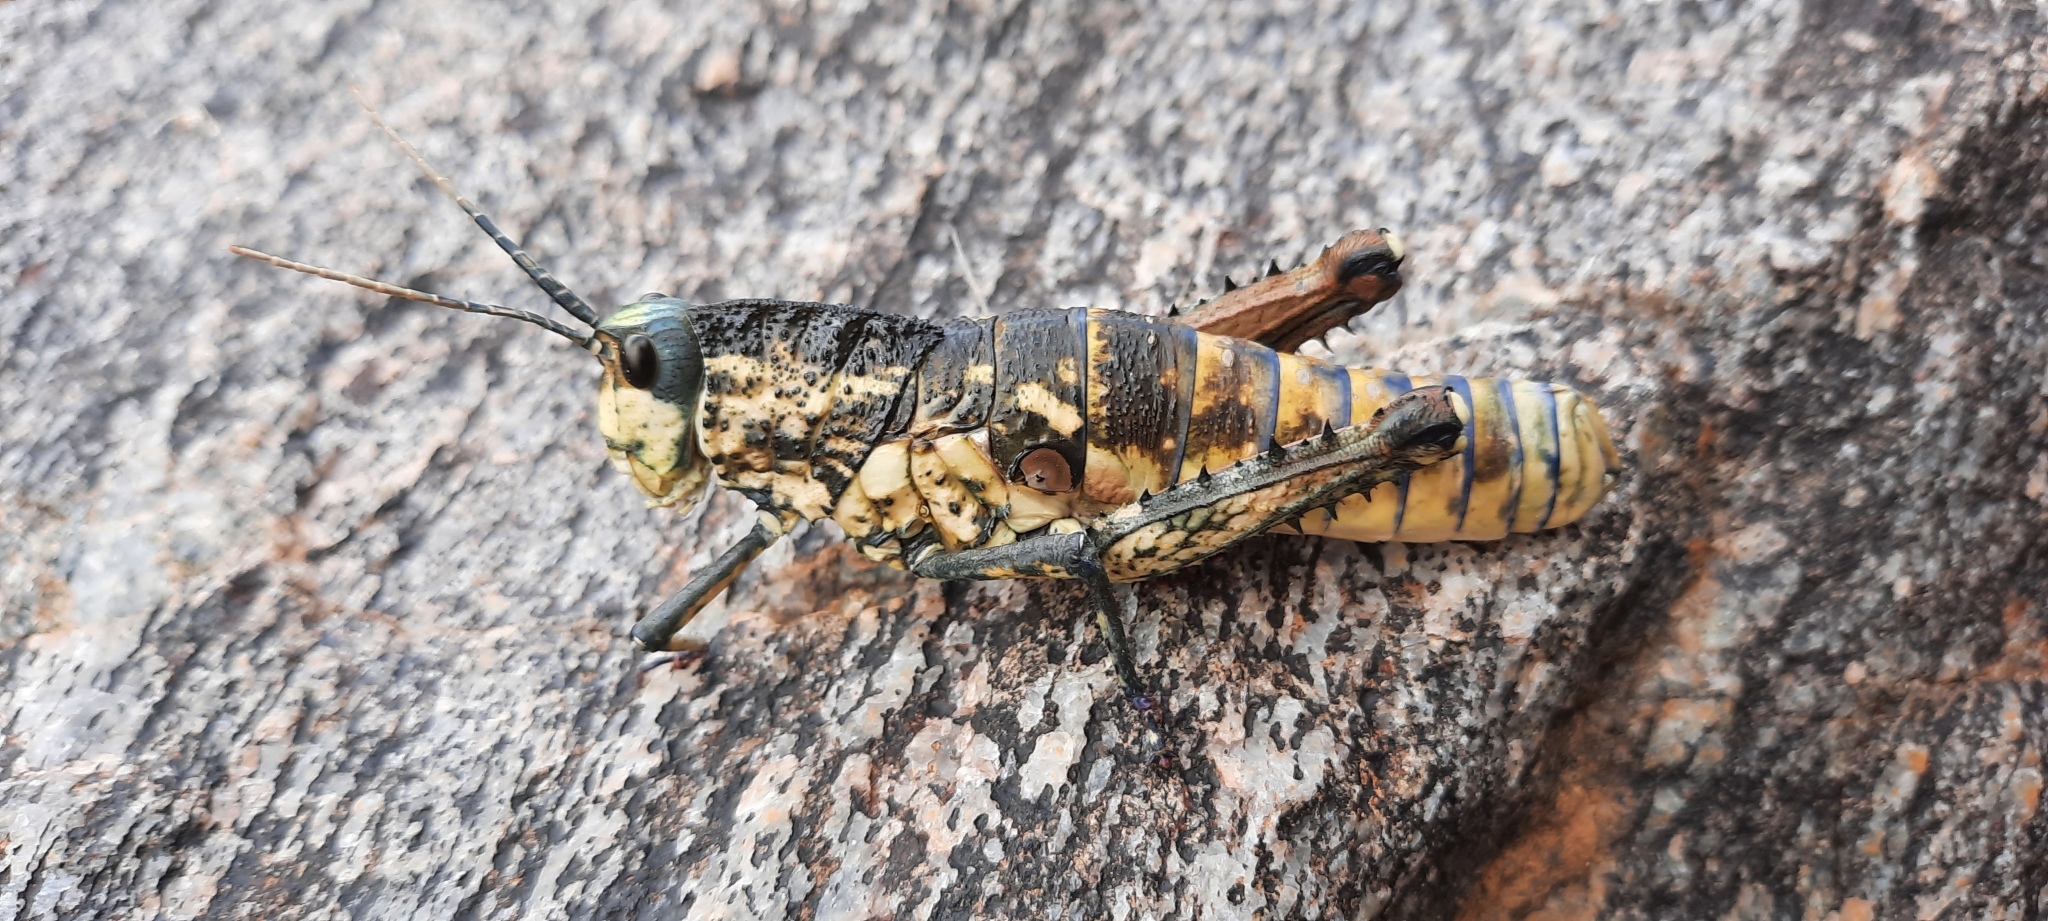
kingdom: Animalia
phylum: Arthropoda
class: Insecta
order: Orthoptera
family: Pamphagidae
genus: Puncticornia
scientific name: Puncticornia puncticornis
